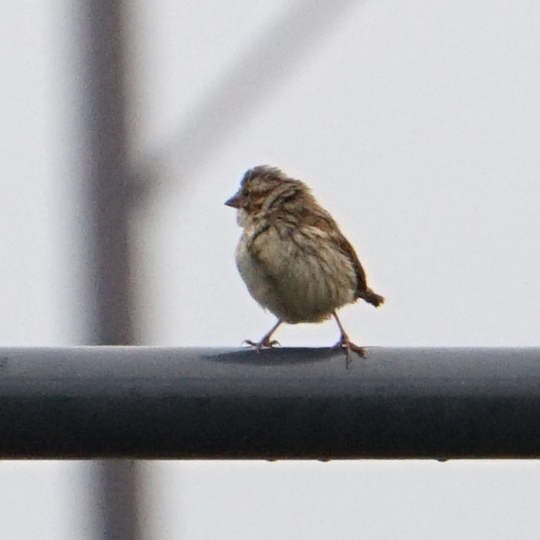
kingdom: Animalia
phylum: Chordata
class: Aves
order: Passeriformes
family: Passerellidae
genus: Melospiza
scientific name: Melospiza melodia
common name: Song sparrow
